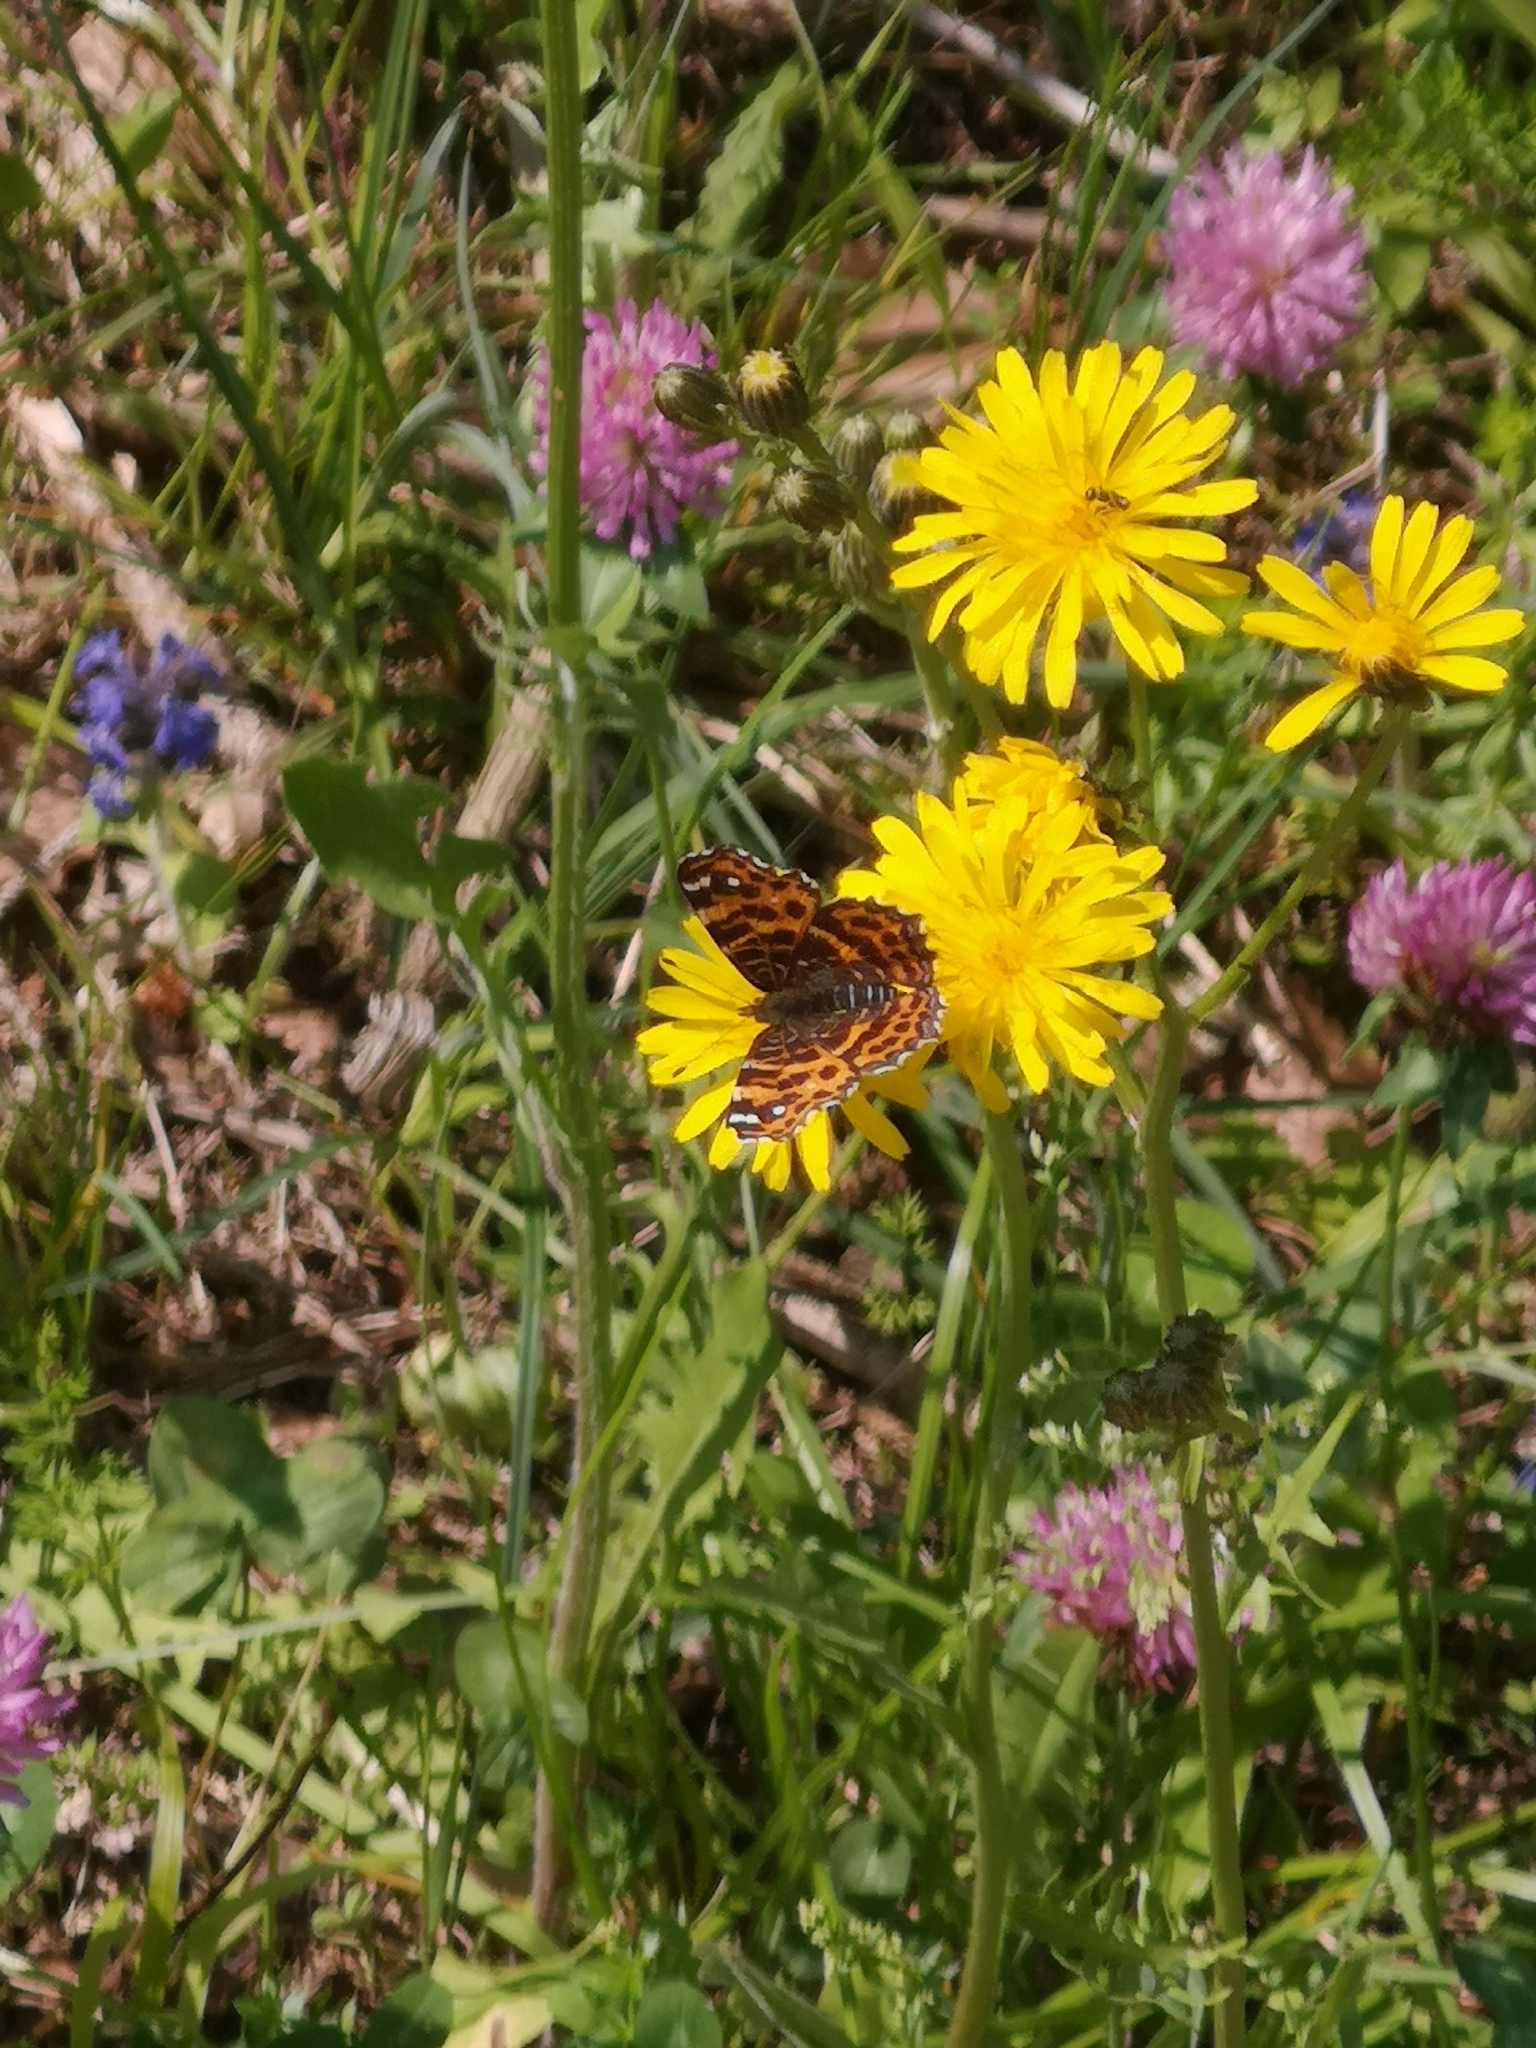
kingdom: Animalia
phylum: Arthropoda
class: Insecta
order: Lepidoptera
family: Nymphalidae
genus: Araschnia
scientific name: Araschnia levana
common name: Map butterfly
